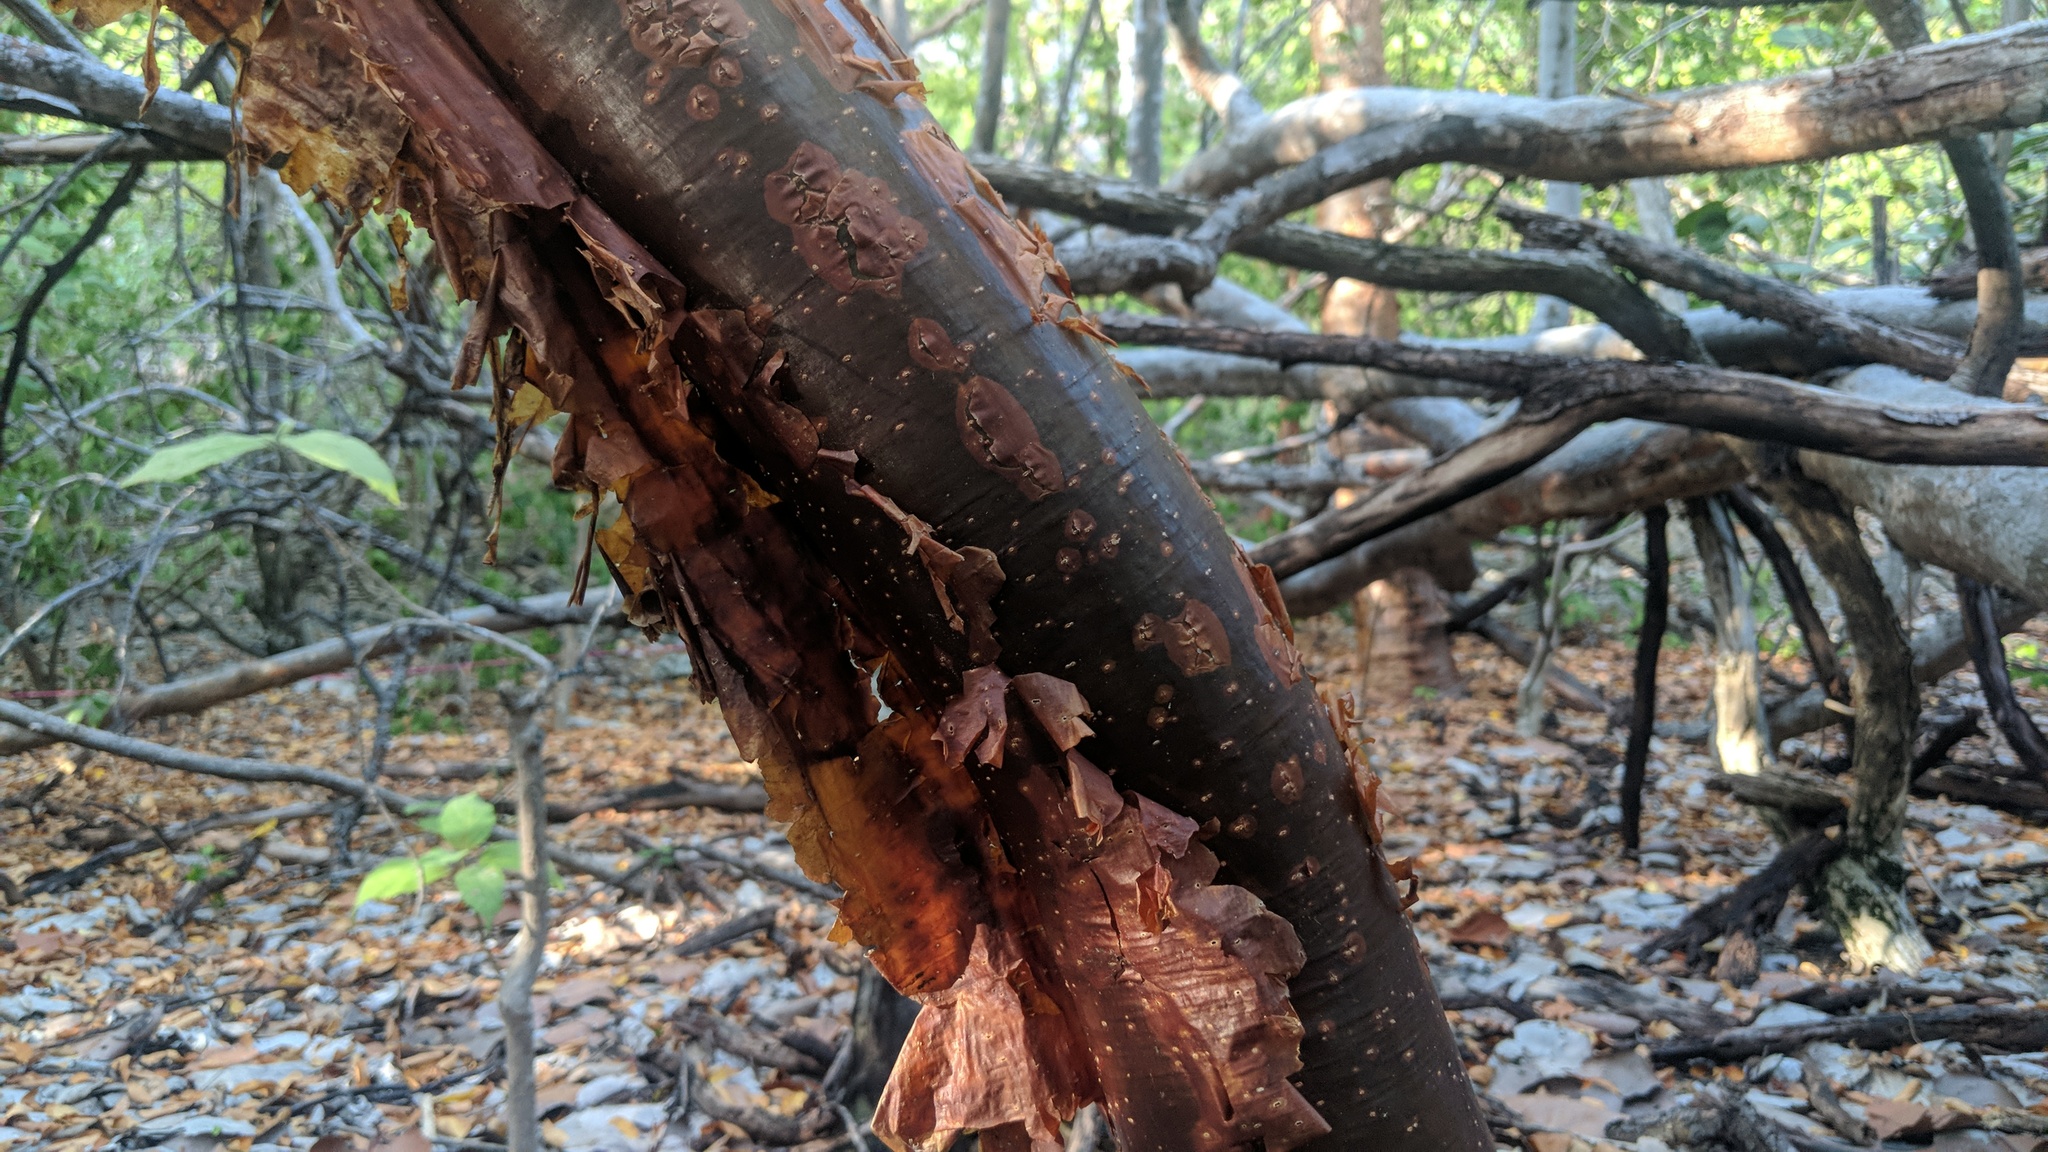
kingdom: Plantae
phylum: Tracheophyta
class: Magnoliopsida
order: Sapindales
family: Burseraceae
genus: Bursera
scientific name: Bursera simaruba
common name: Turpentine tree
